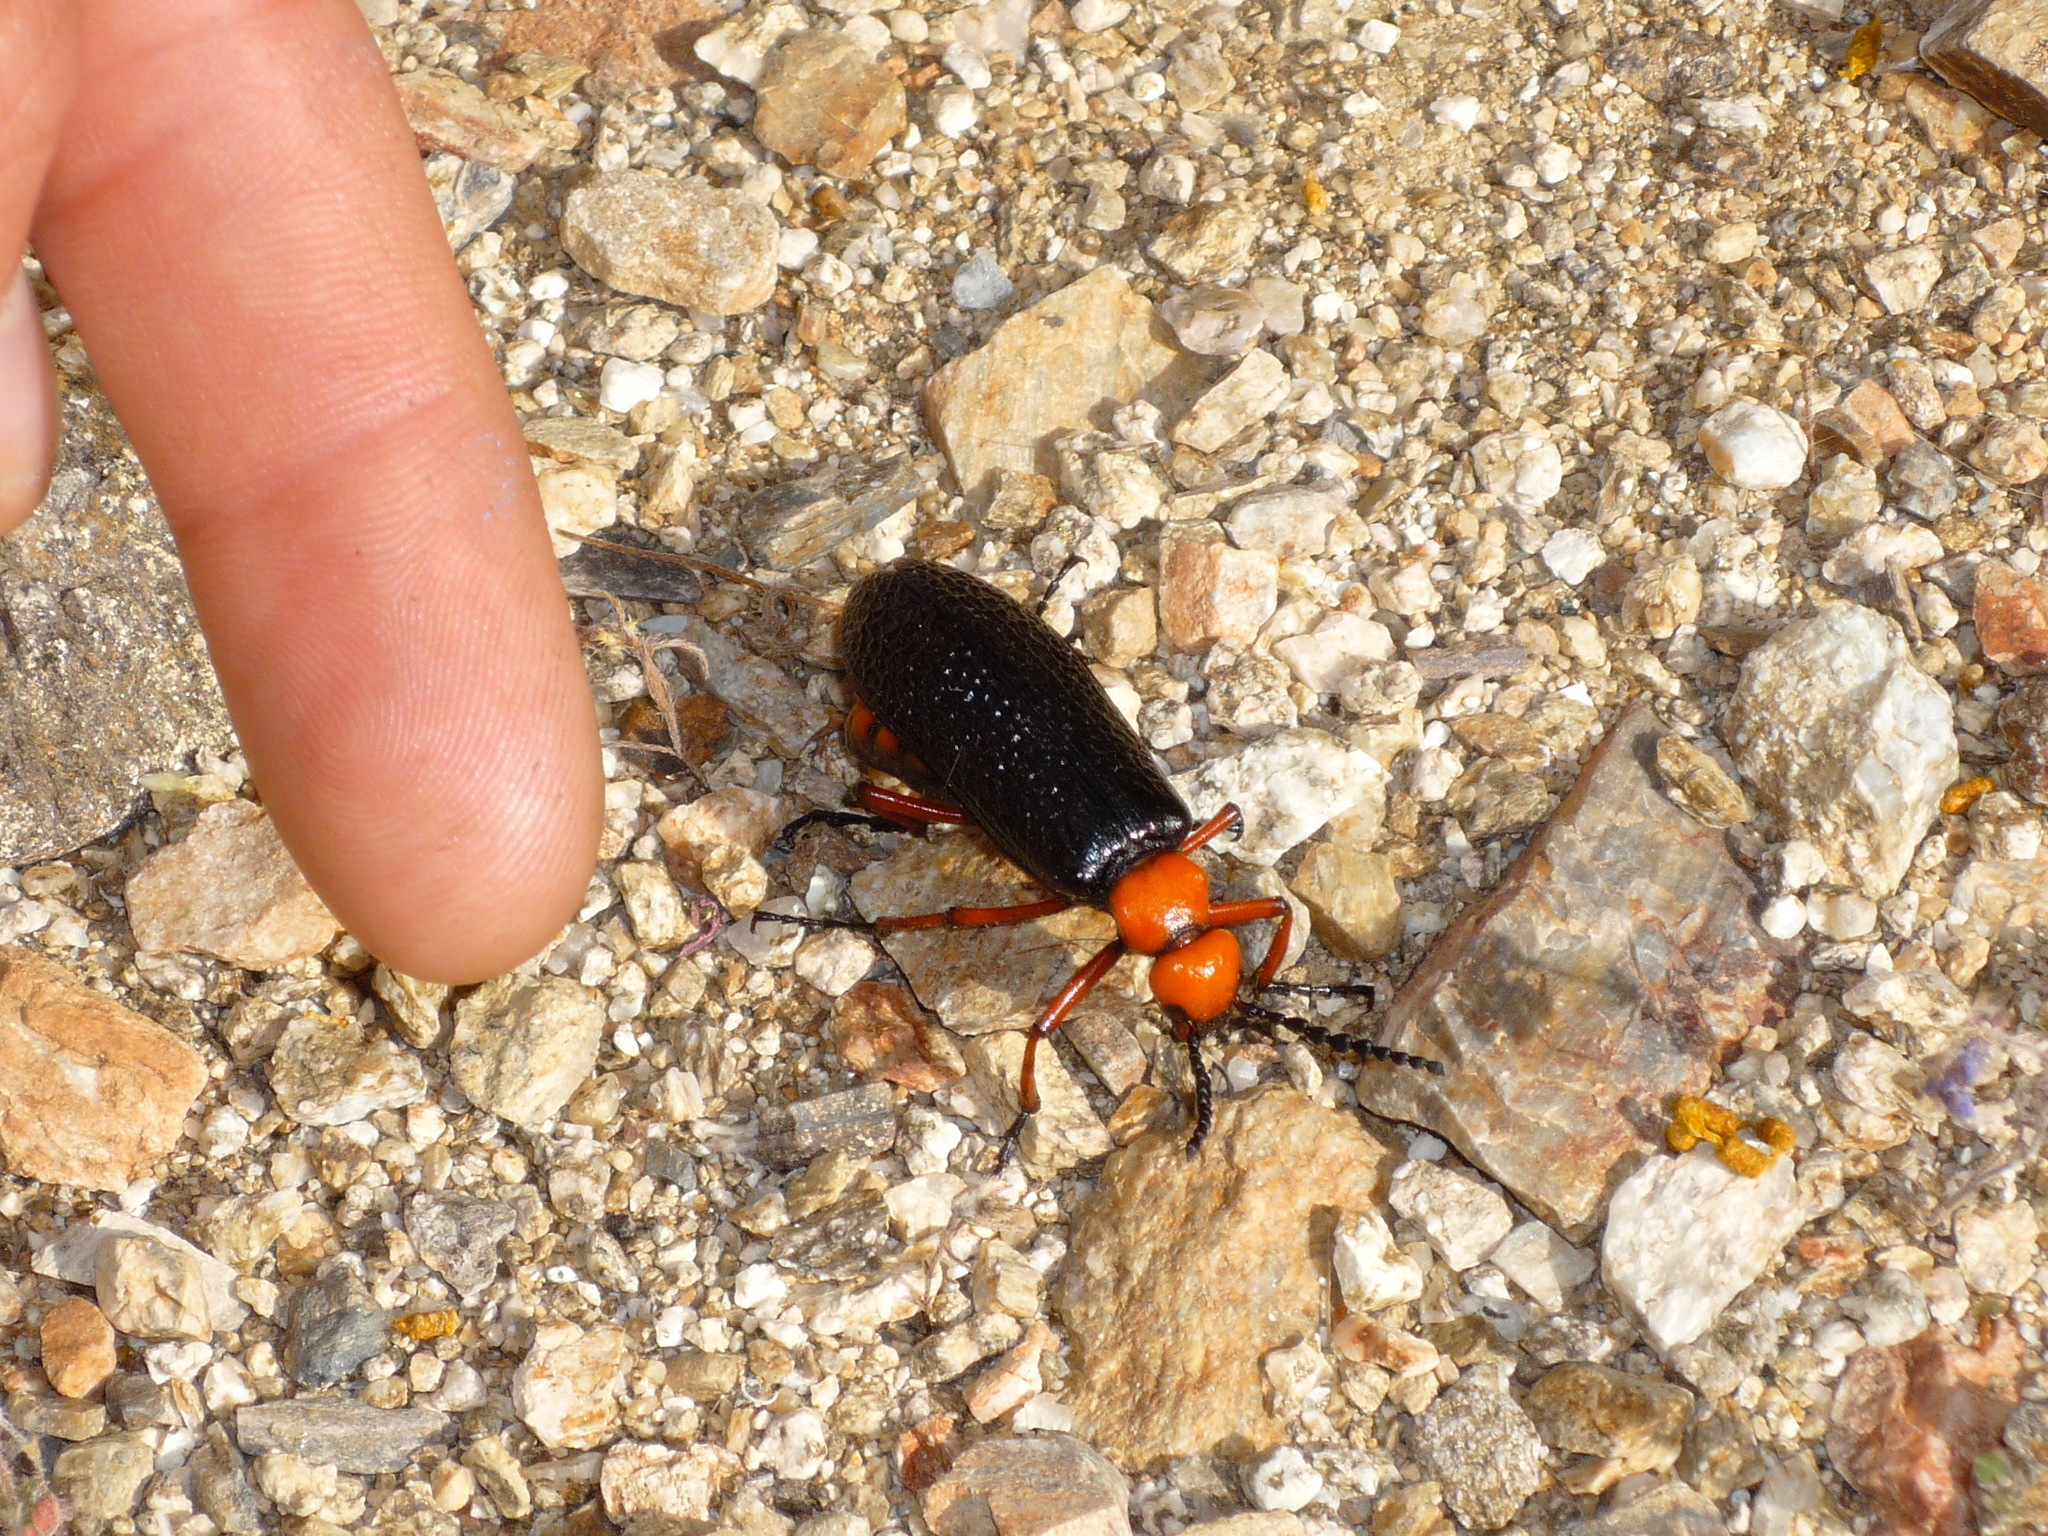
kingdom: Animalia
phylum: Arthropoda
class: Insecta
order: Coleoptera
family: Meloidae
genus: Lytta
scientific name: Lytta magister
